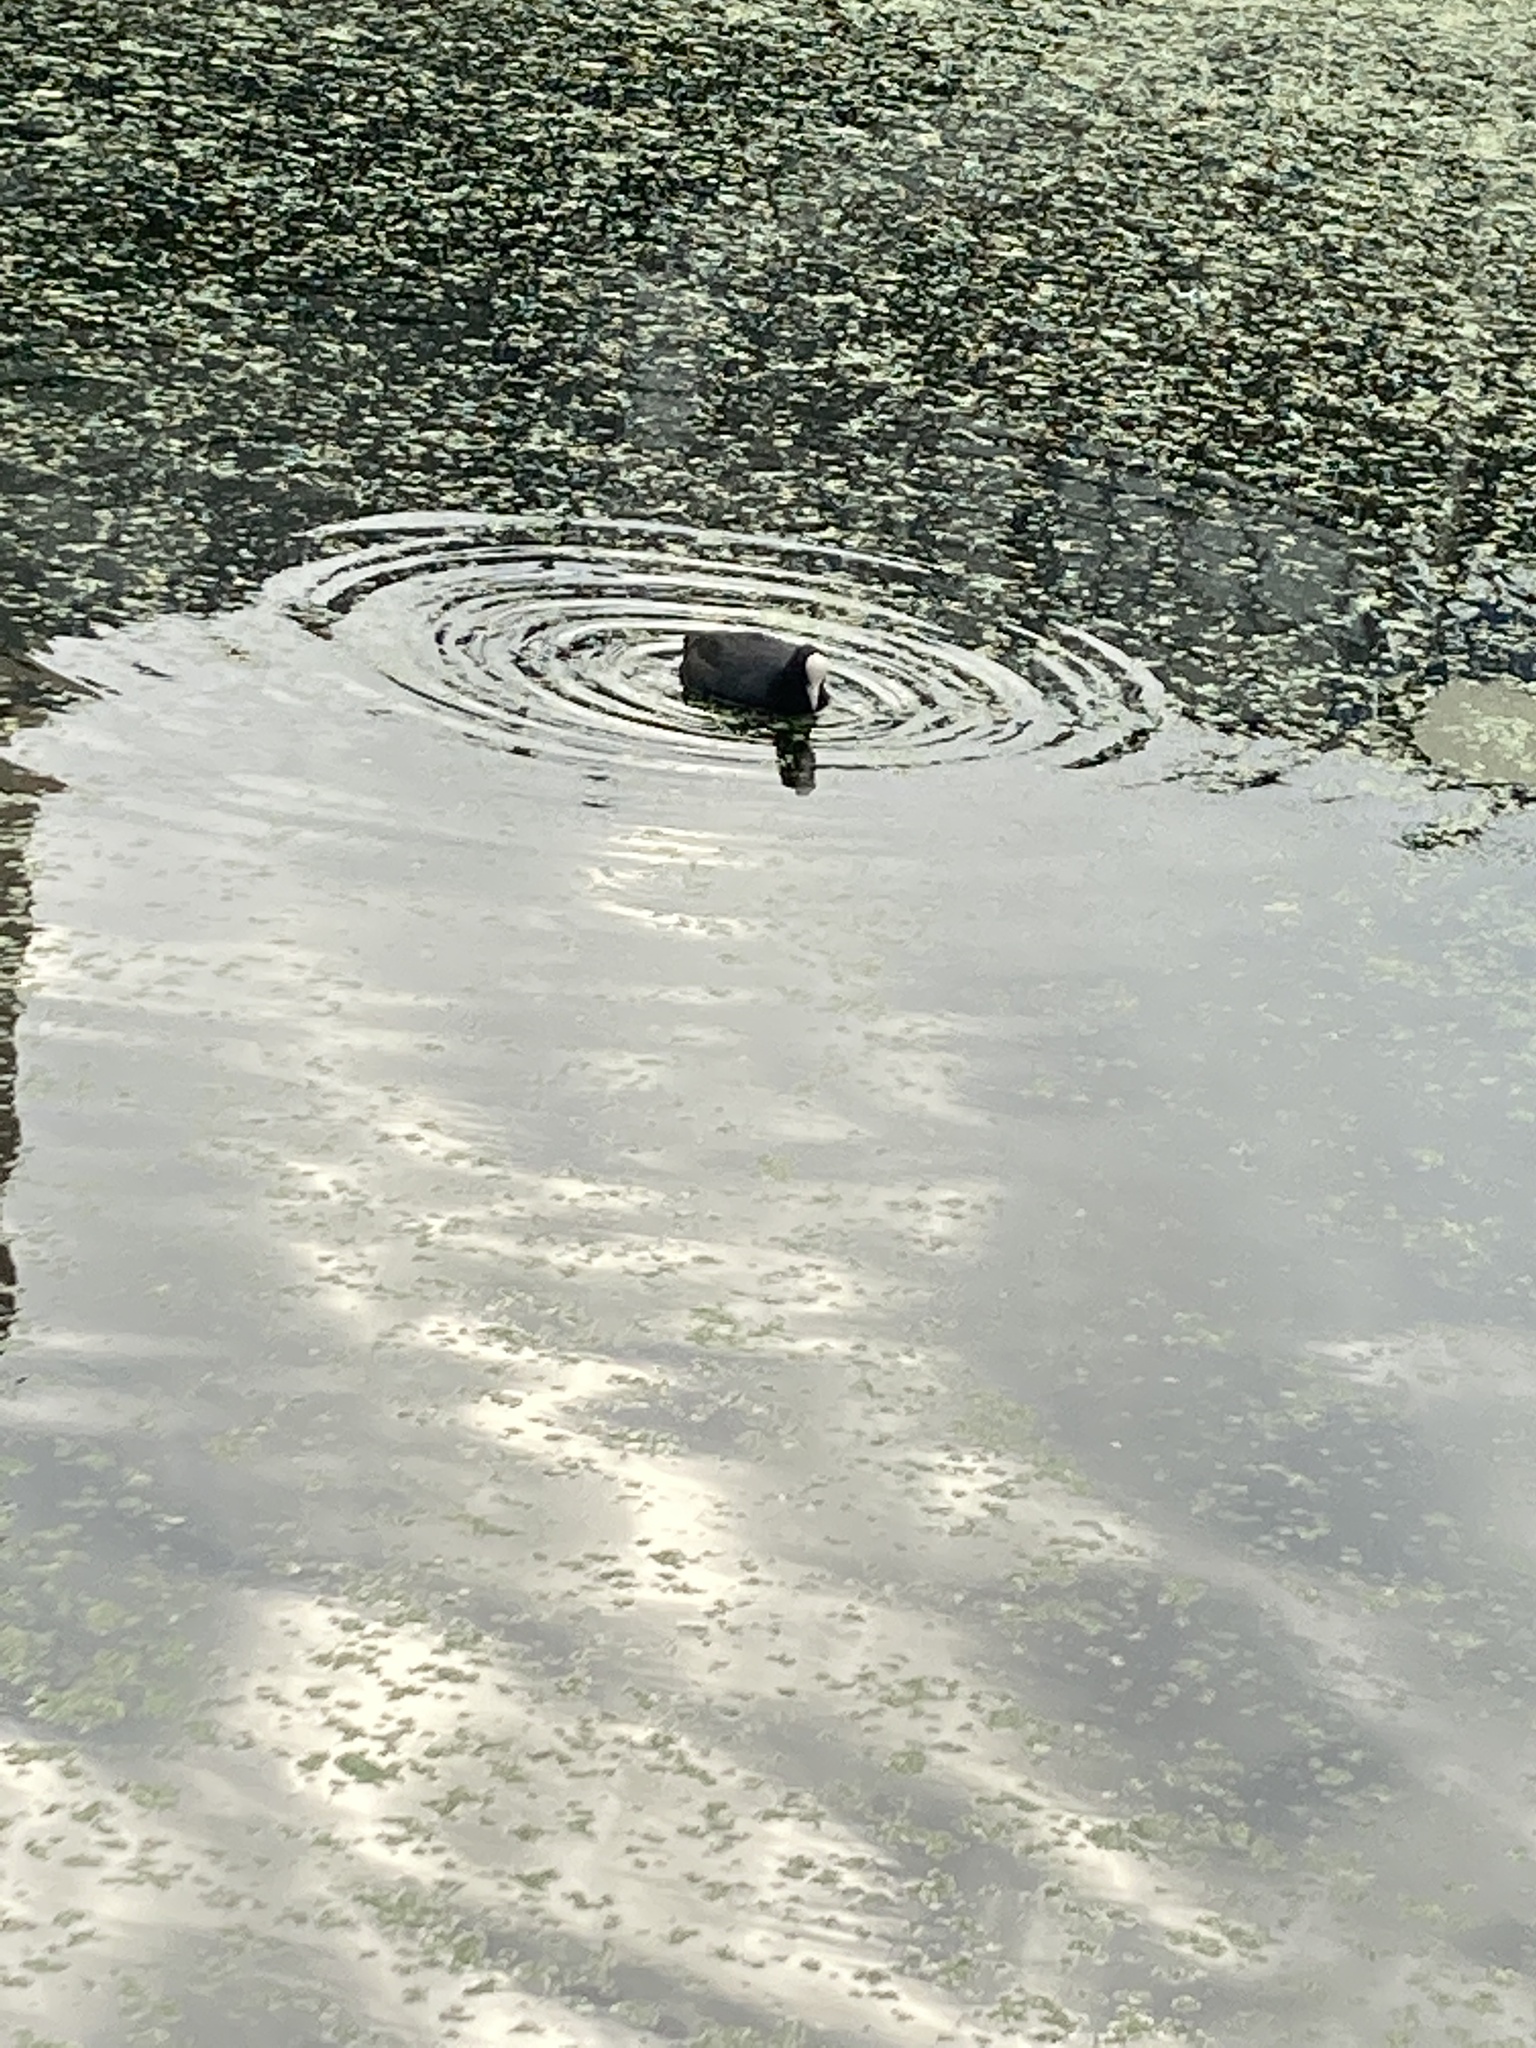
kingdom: Animalia
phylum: Chordata
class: Aves
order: Gruiformes
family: Rallidae
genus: Fulica
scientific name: Fulica atra
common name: Eurasian coot
